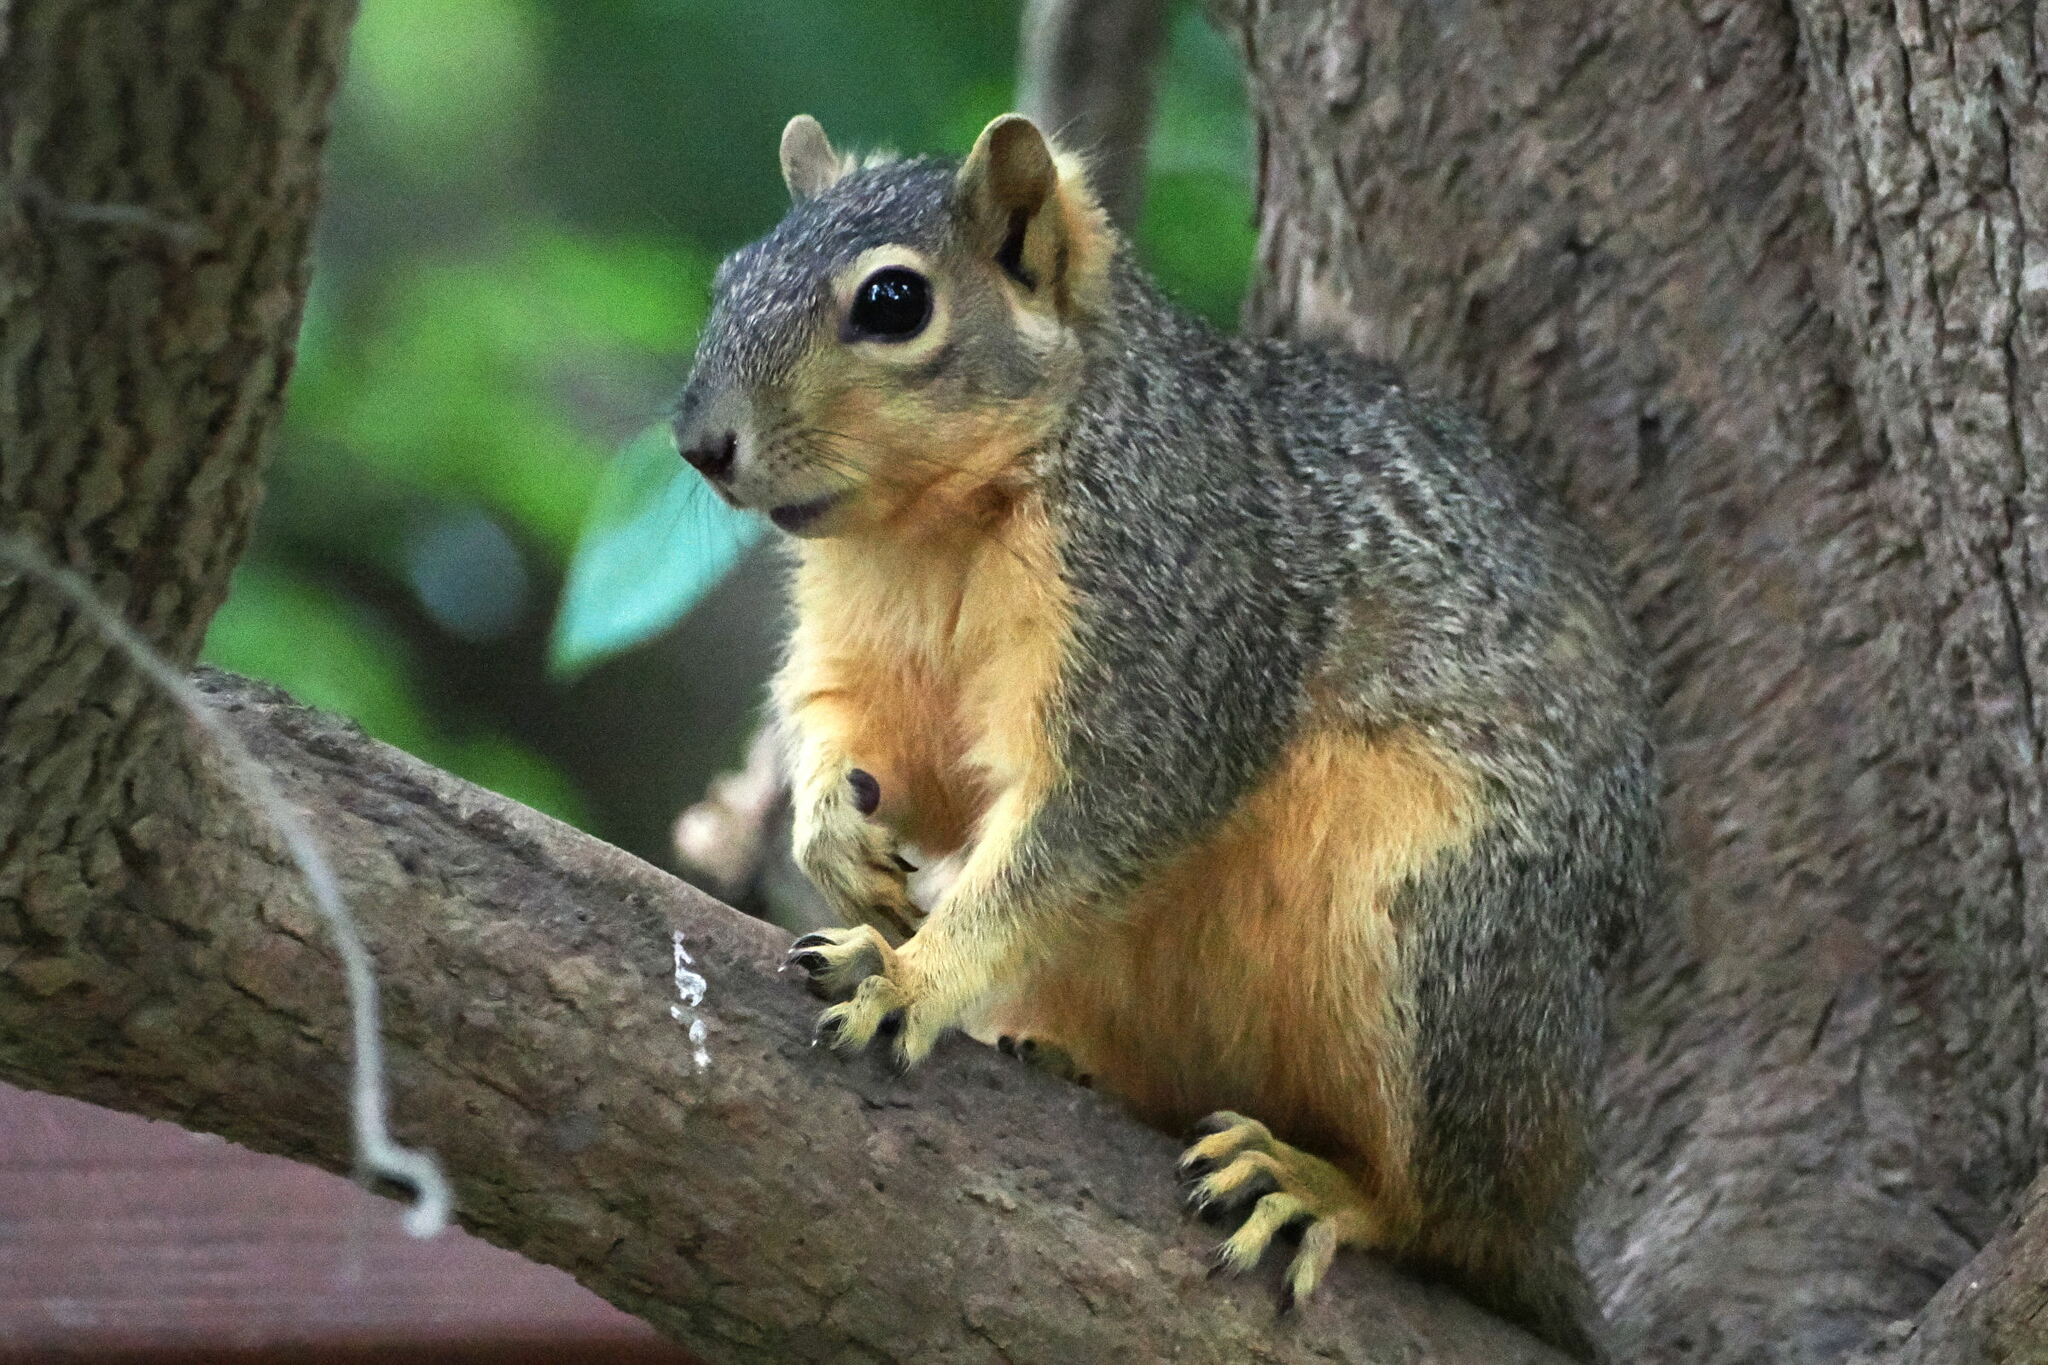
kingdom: Animalia
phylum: Chordata
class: Mammalia
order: Rodentia
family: Sciuridae
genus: Sciurus
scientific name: Sciurus niger
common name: Fox squirrel
